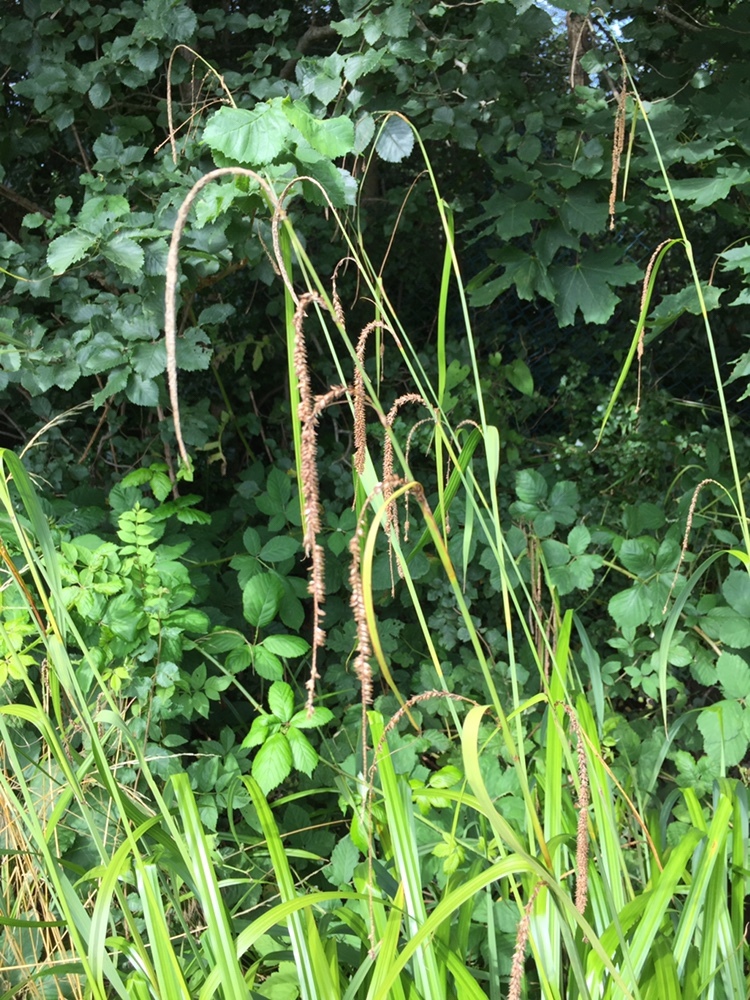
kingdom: Plantae
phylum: Tracheophyta
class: Liliopsida
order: Poales
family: Cyperaceae
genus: Carex
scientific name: Carex pendula
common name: Pendulous sedge
